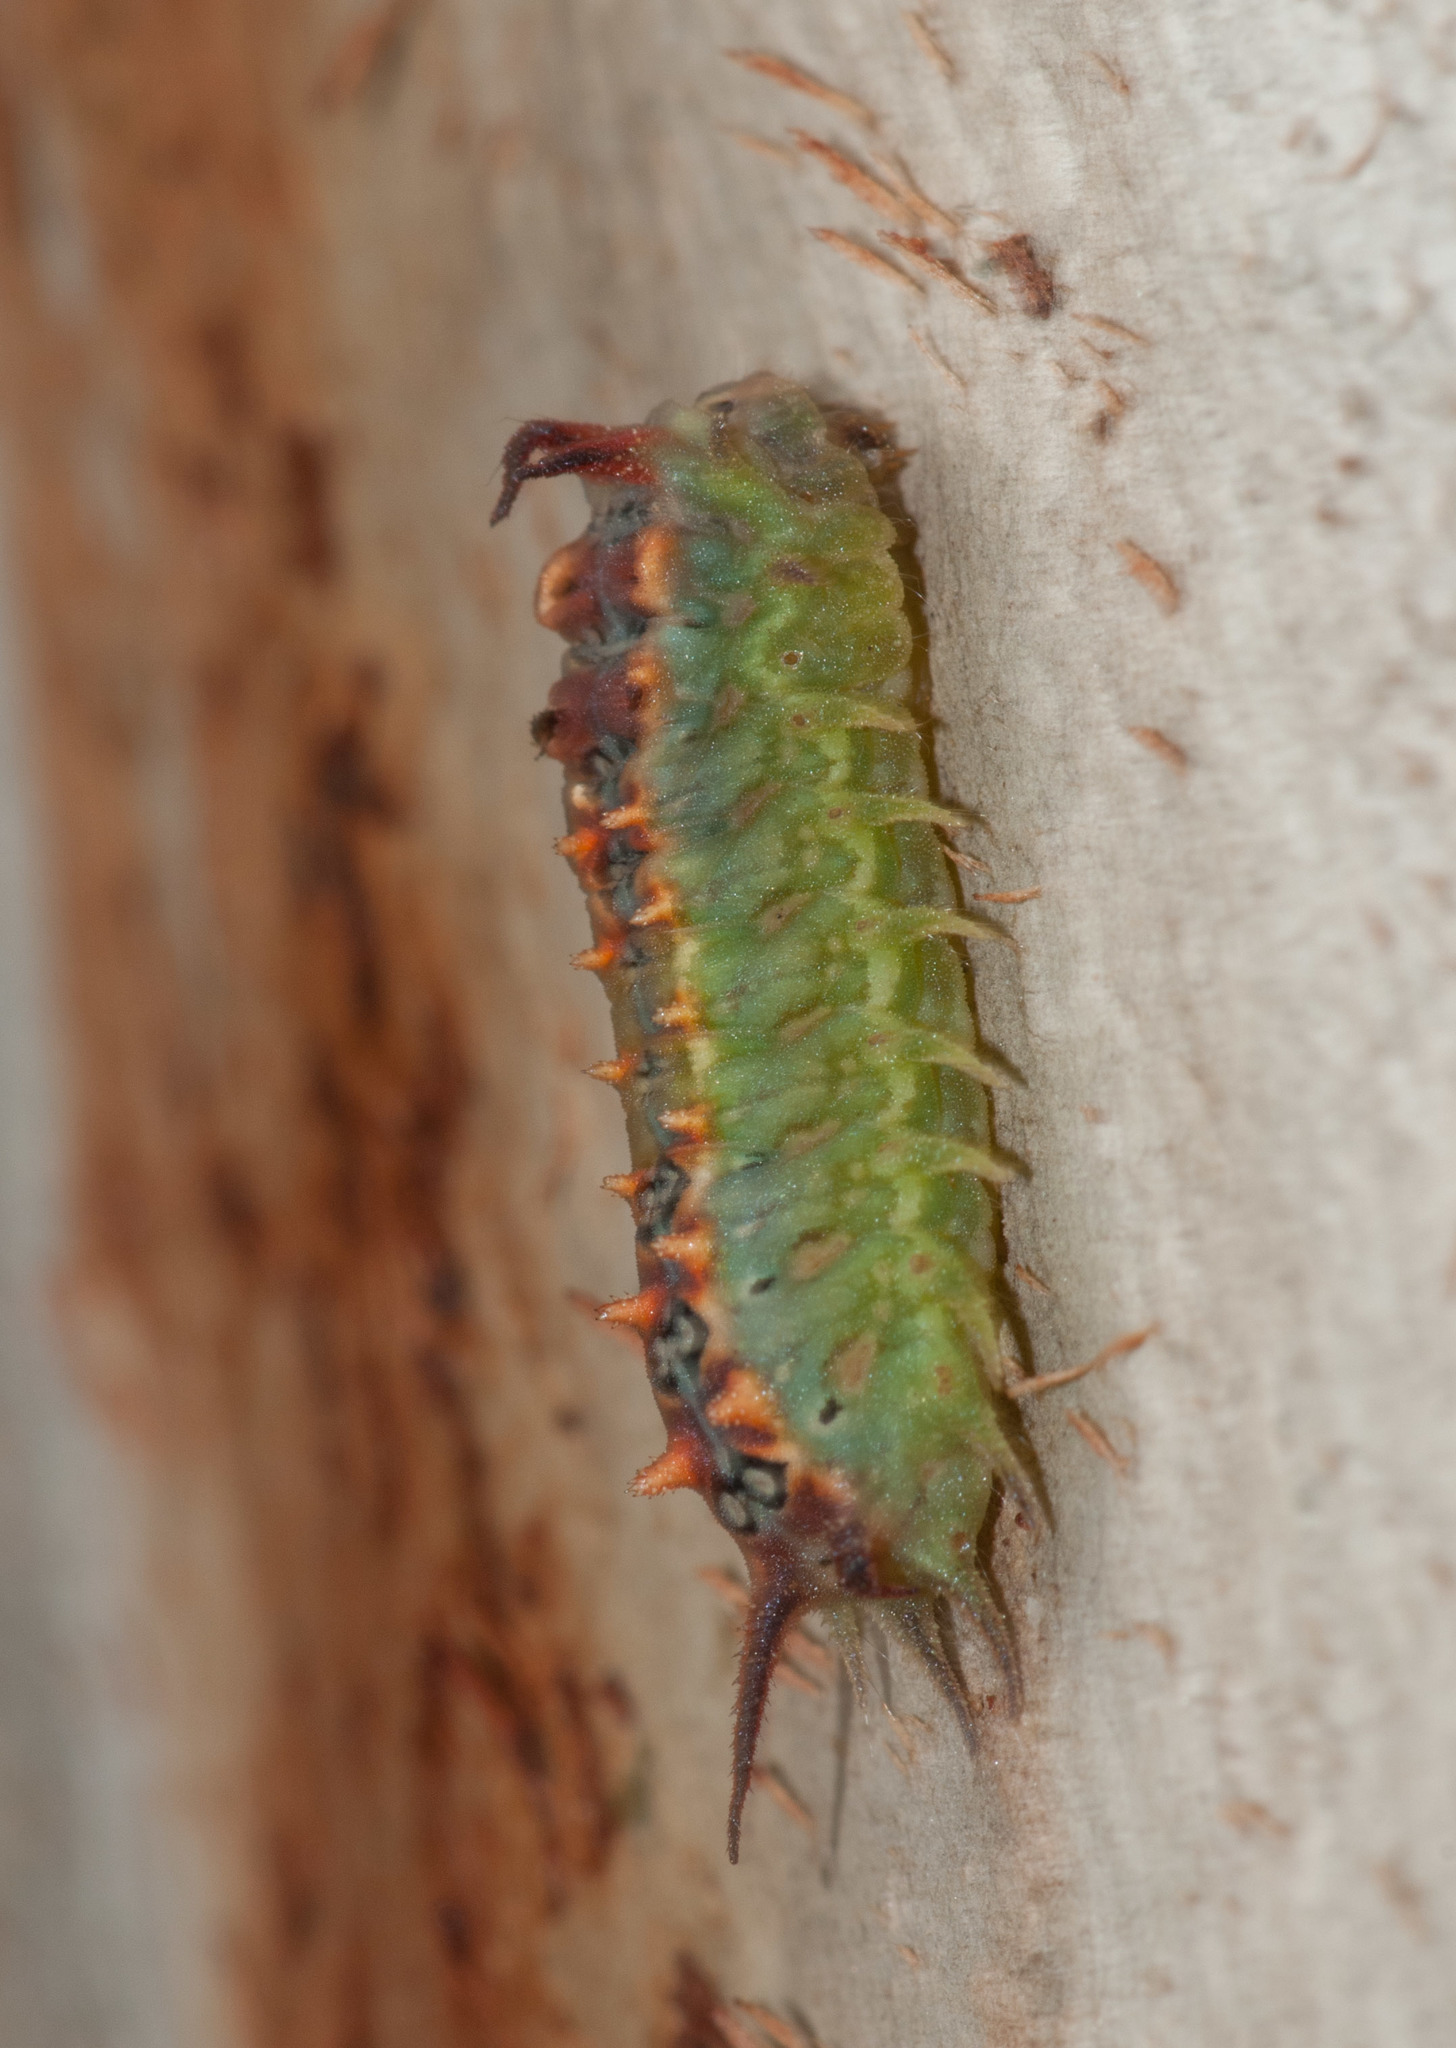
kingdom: Animalia
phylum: Arthropoda
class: Insecta
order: Lepidoptera
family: Limacodidae
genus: Doratifera
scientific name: Doratifera quadriguttata
